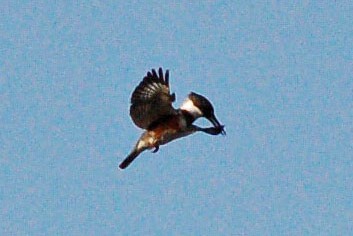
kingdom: Animalia
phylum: Chordata
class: Aves
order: Coraciiformes
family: Alcedinidae
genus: Megaceryle
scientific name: Megaceryle alcyon
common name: Belted kingfisher
